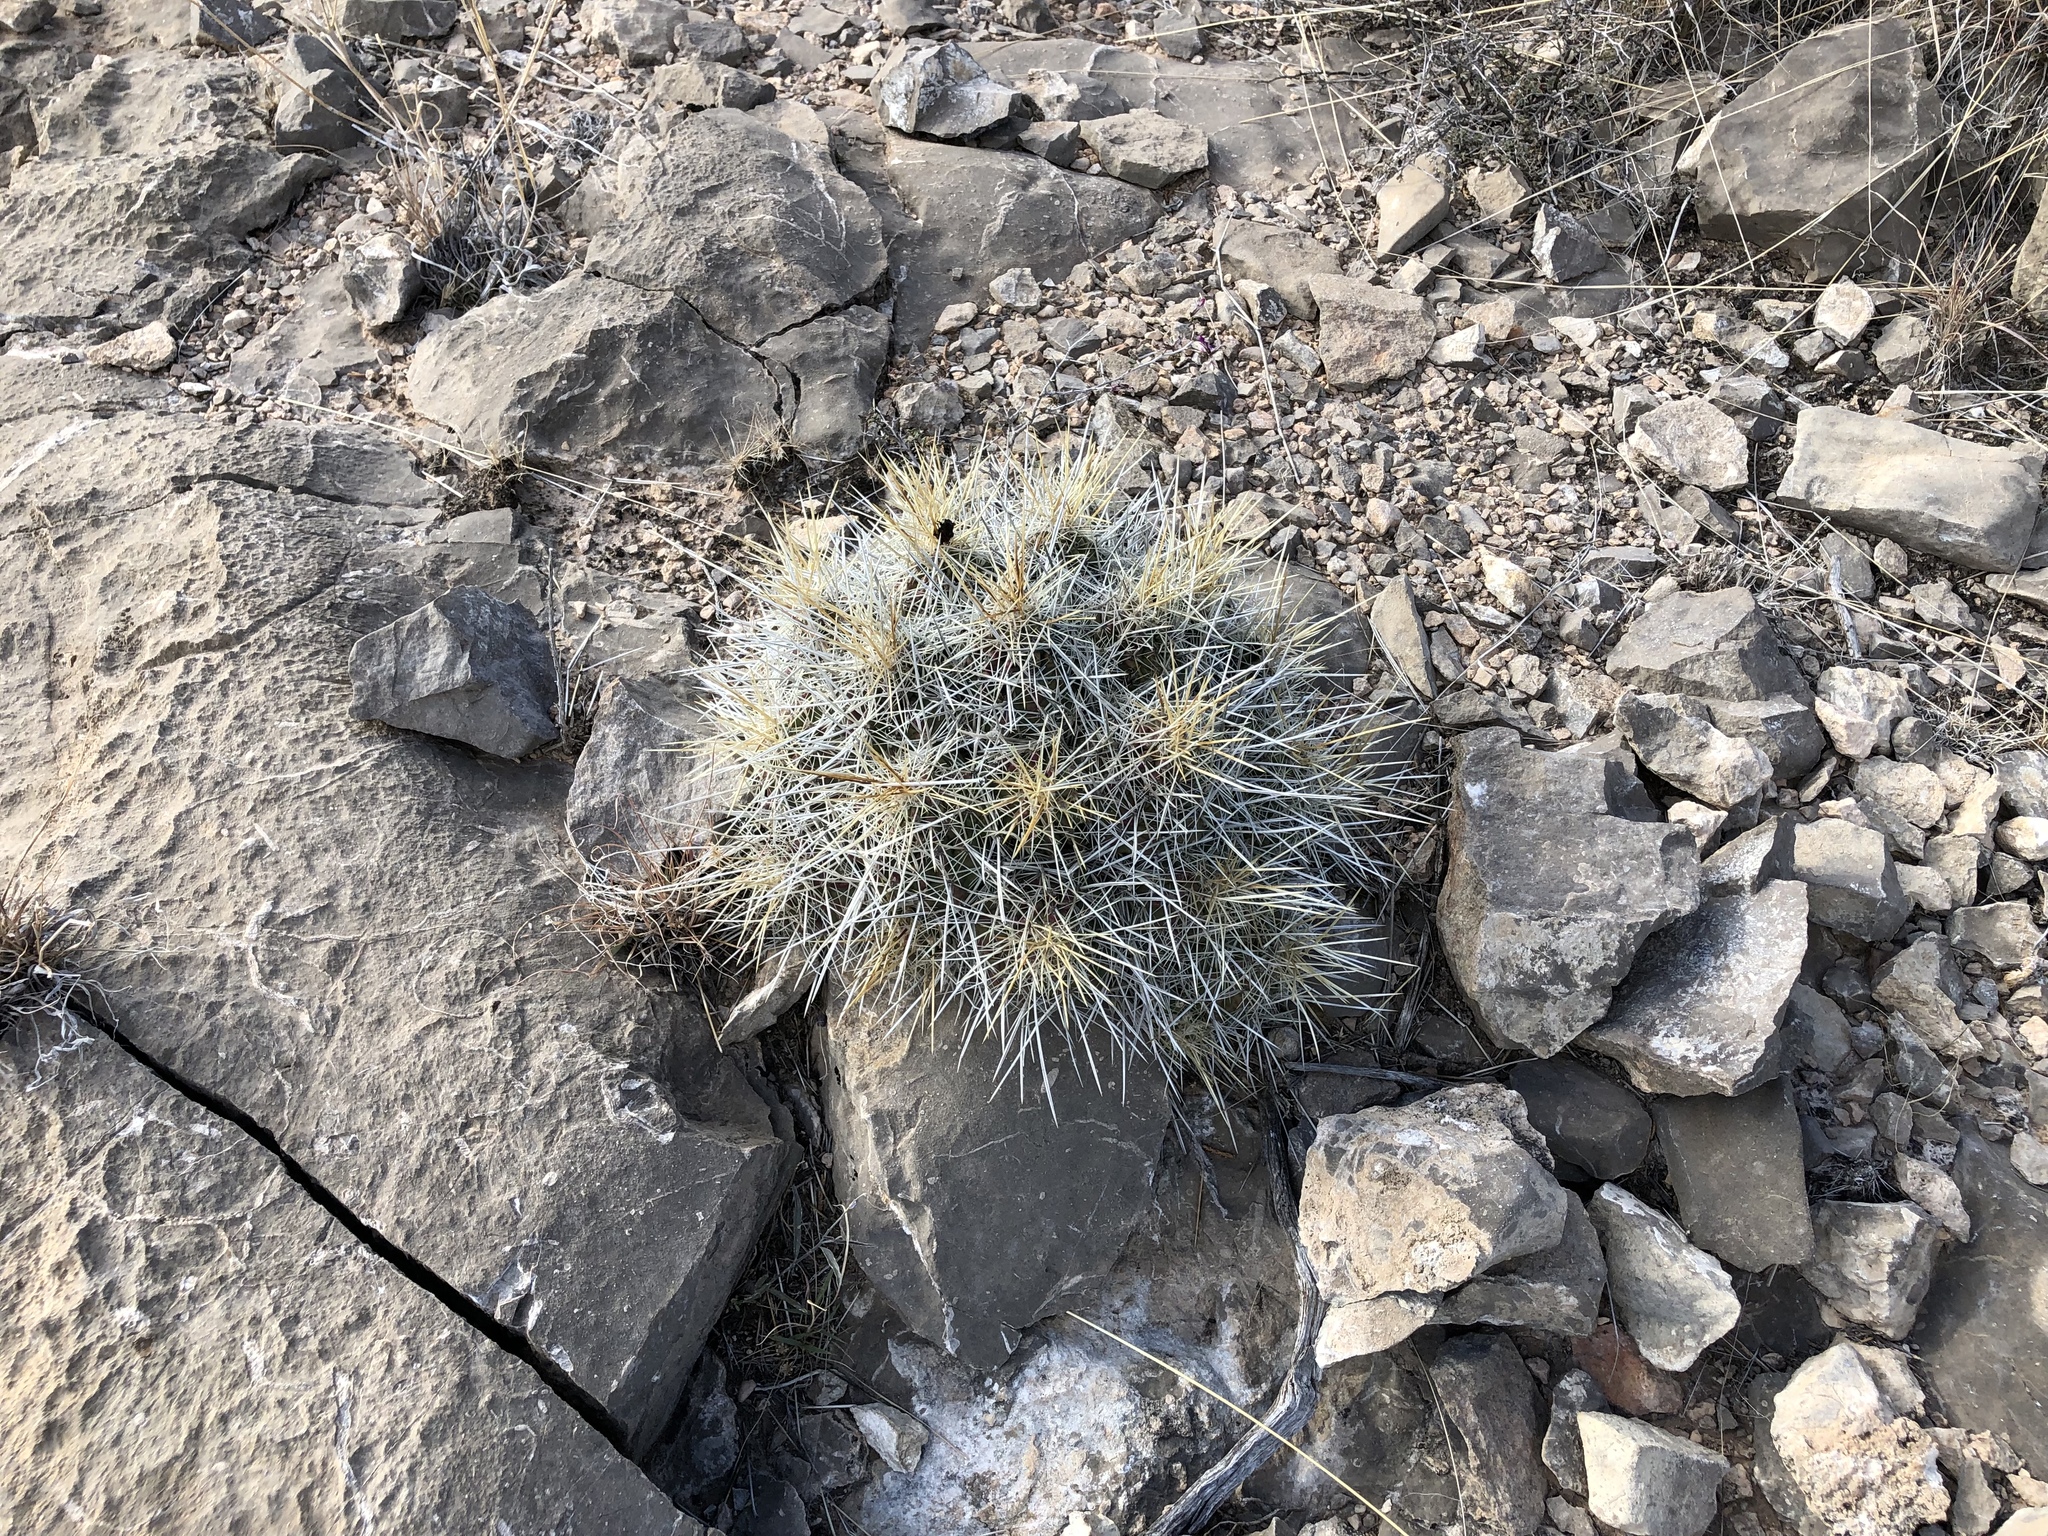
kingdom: Plantae
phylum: Tracheophyta
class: Magnoliopsida
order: Caryophyllales
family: Cactaceae
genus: Echinocereus
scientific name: Echinocereus stramineus
